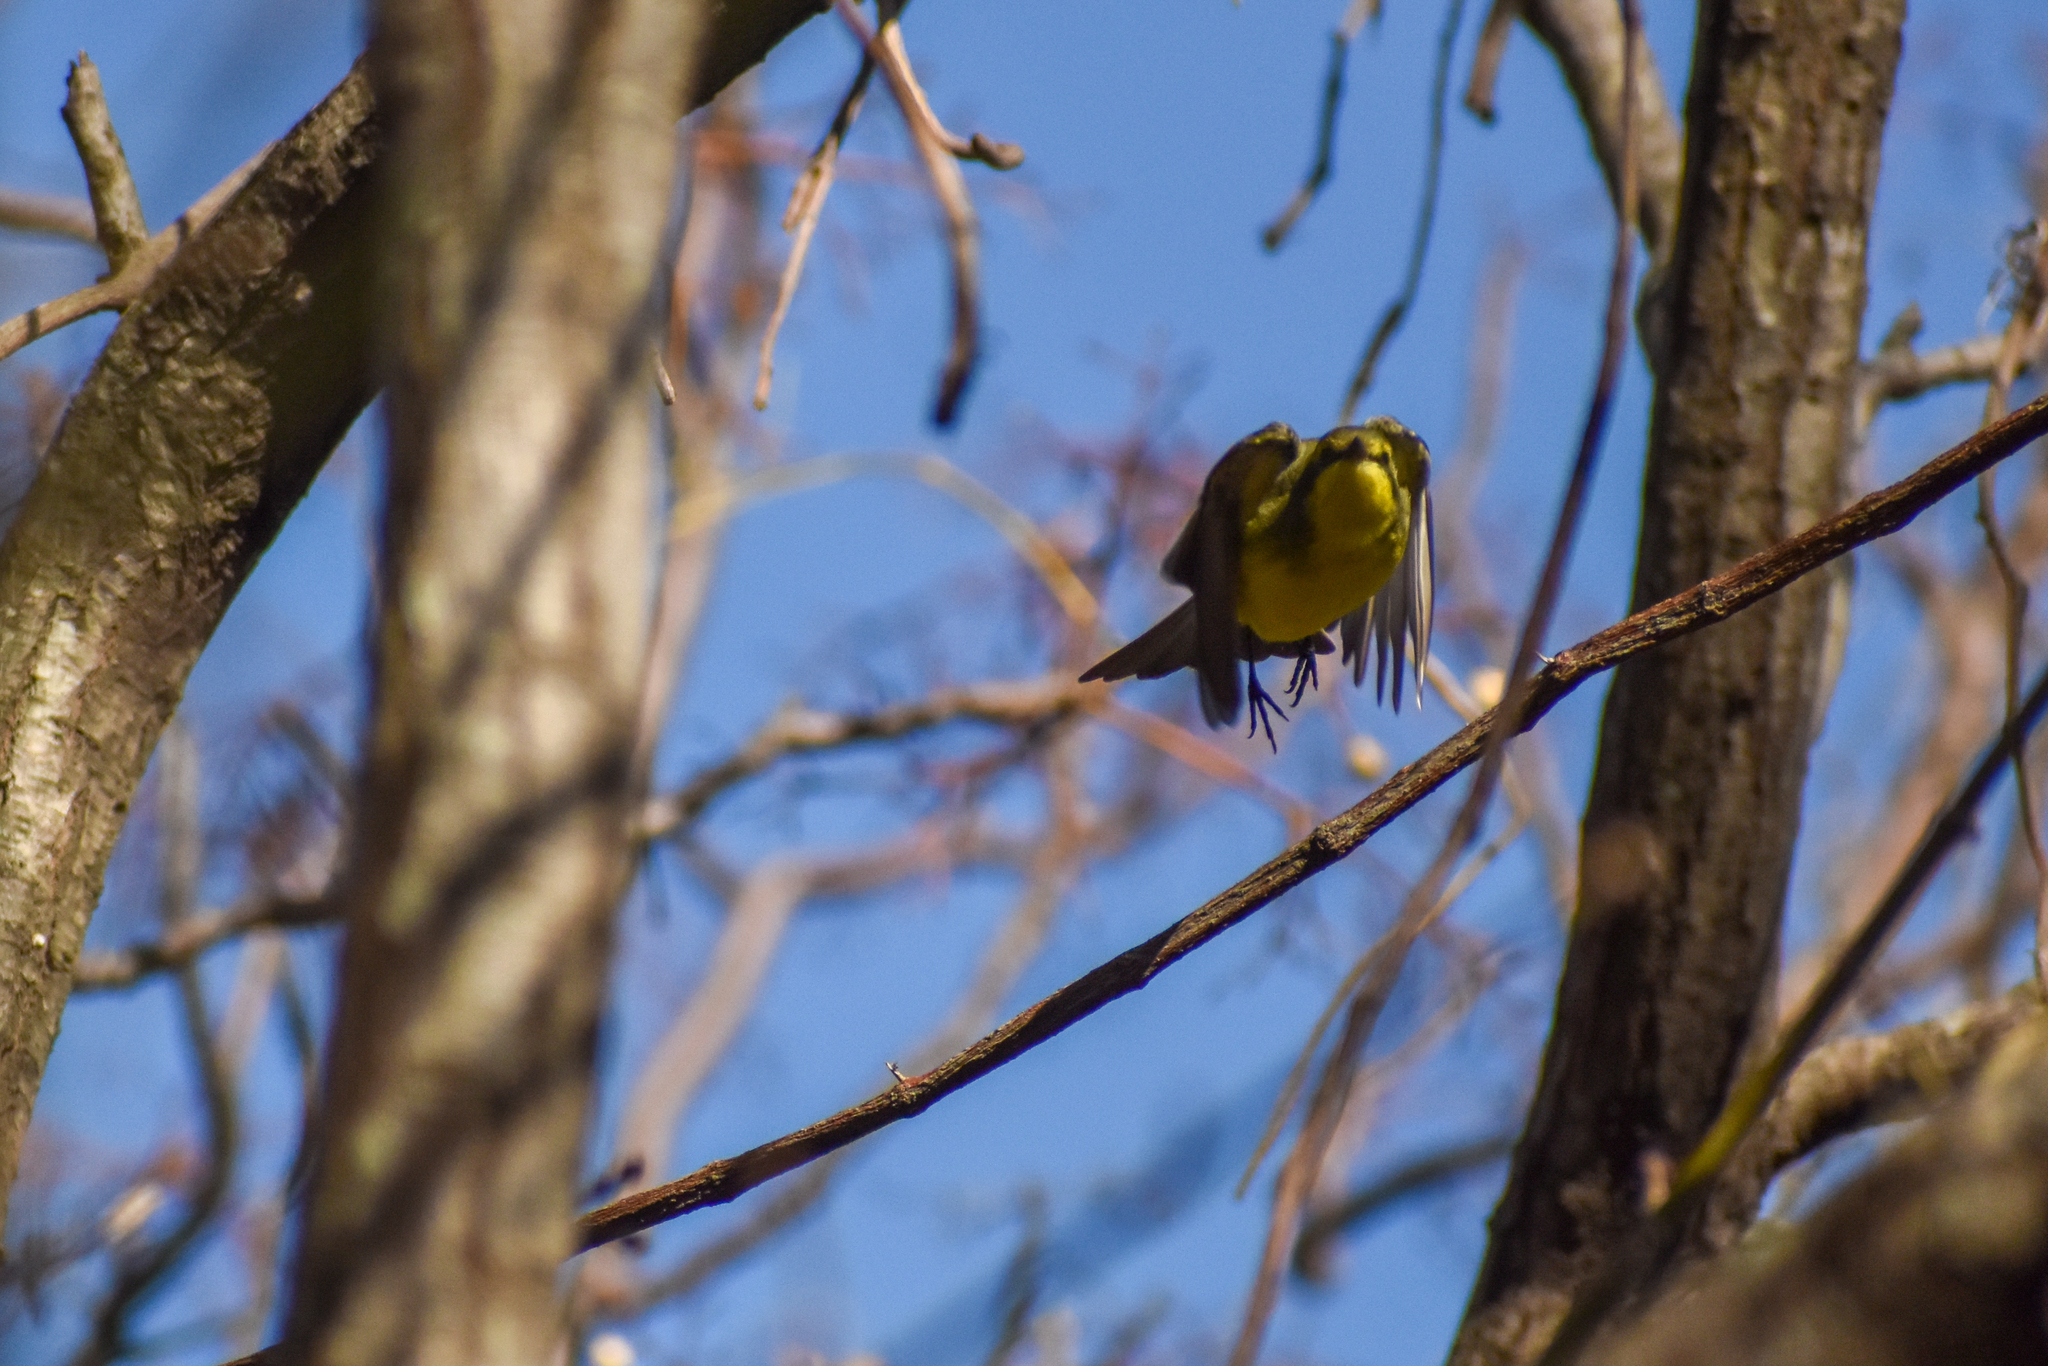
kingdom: Animalia
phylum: Chordata
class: Aves
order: Passeriformes
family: Tyrannidae
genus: Satrapa
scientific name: Satrapa icterophrys
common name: Yellow-browed tyrant
